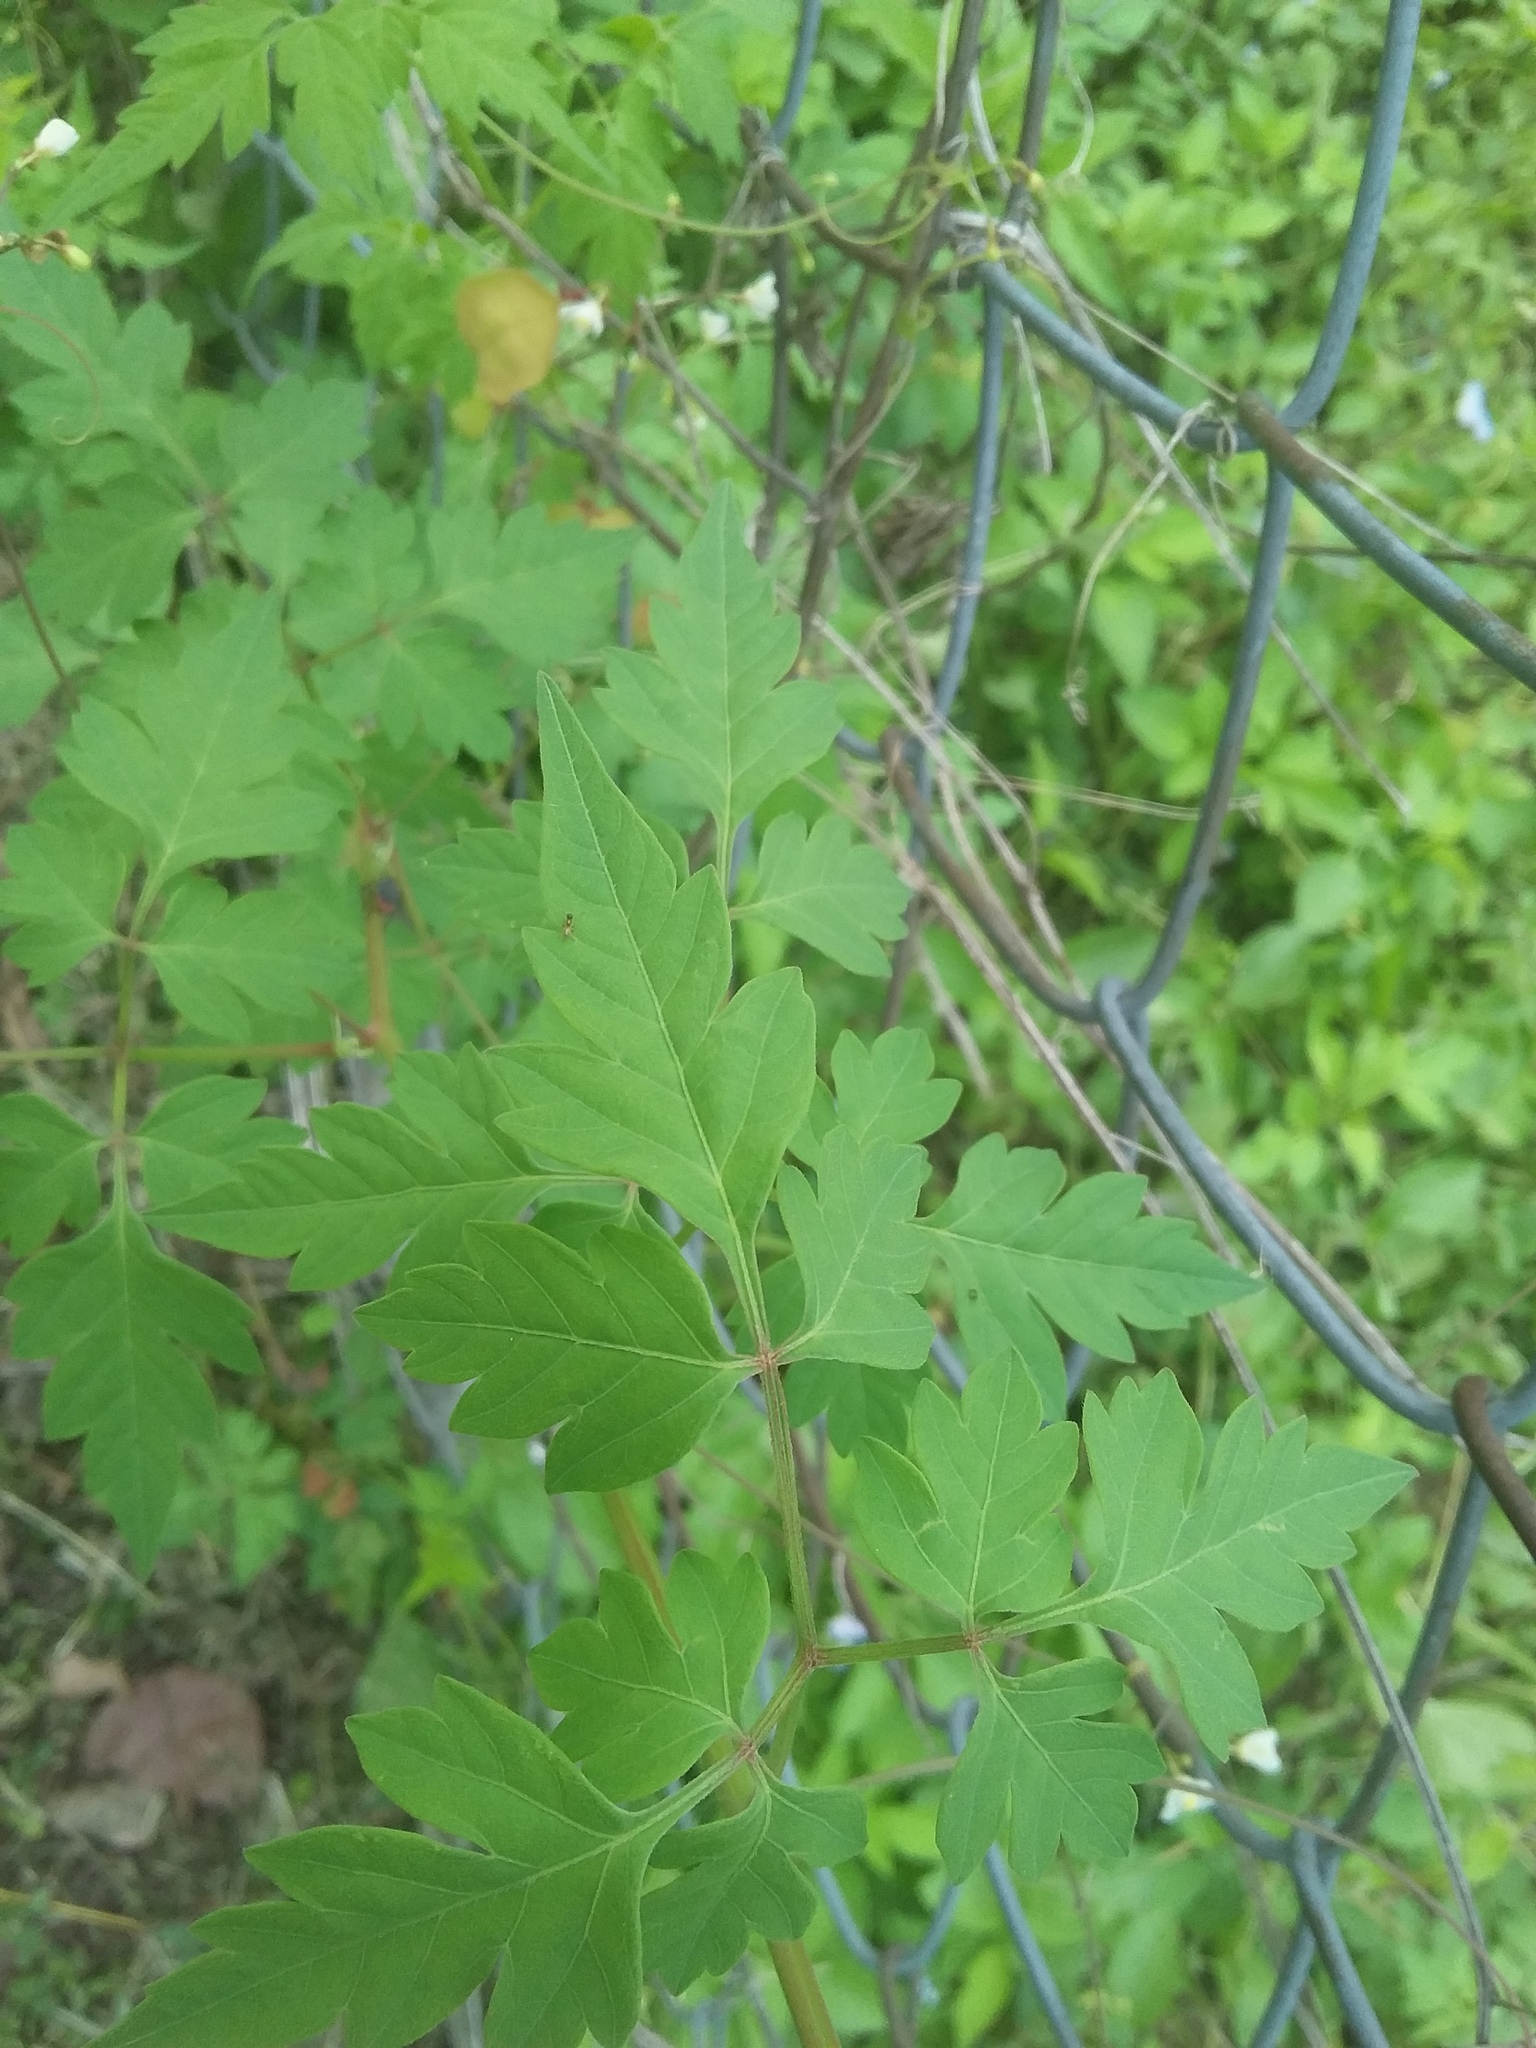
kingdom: Plantae
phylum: Tracheophyta
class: Magnoliopsida
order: Sapindales
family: Sapindaceae
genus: Cardiospermum
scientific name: Cardiospermum halicacabum
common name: Balloon vine
